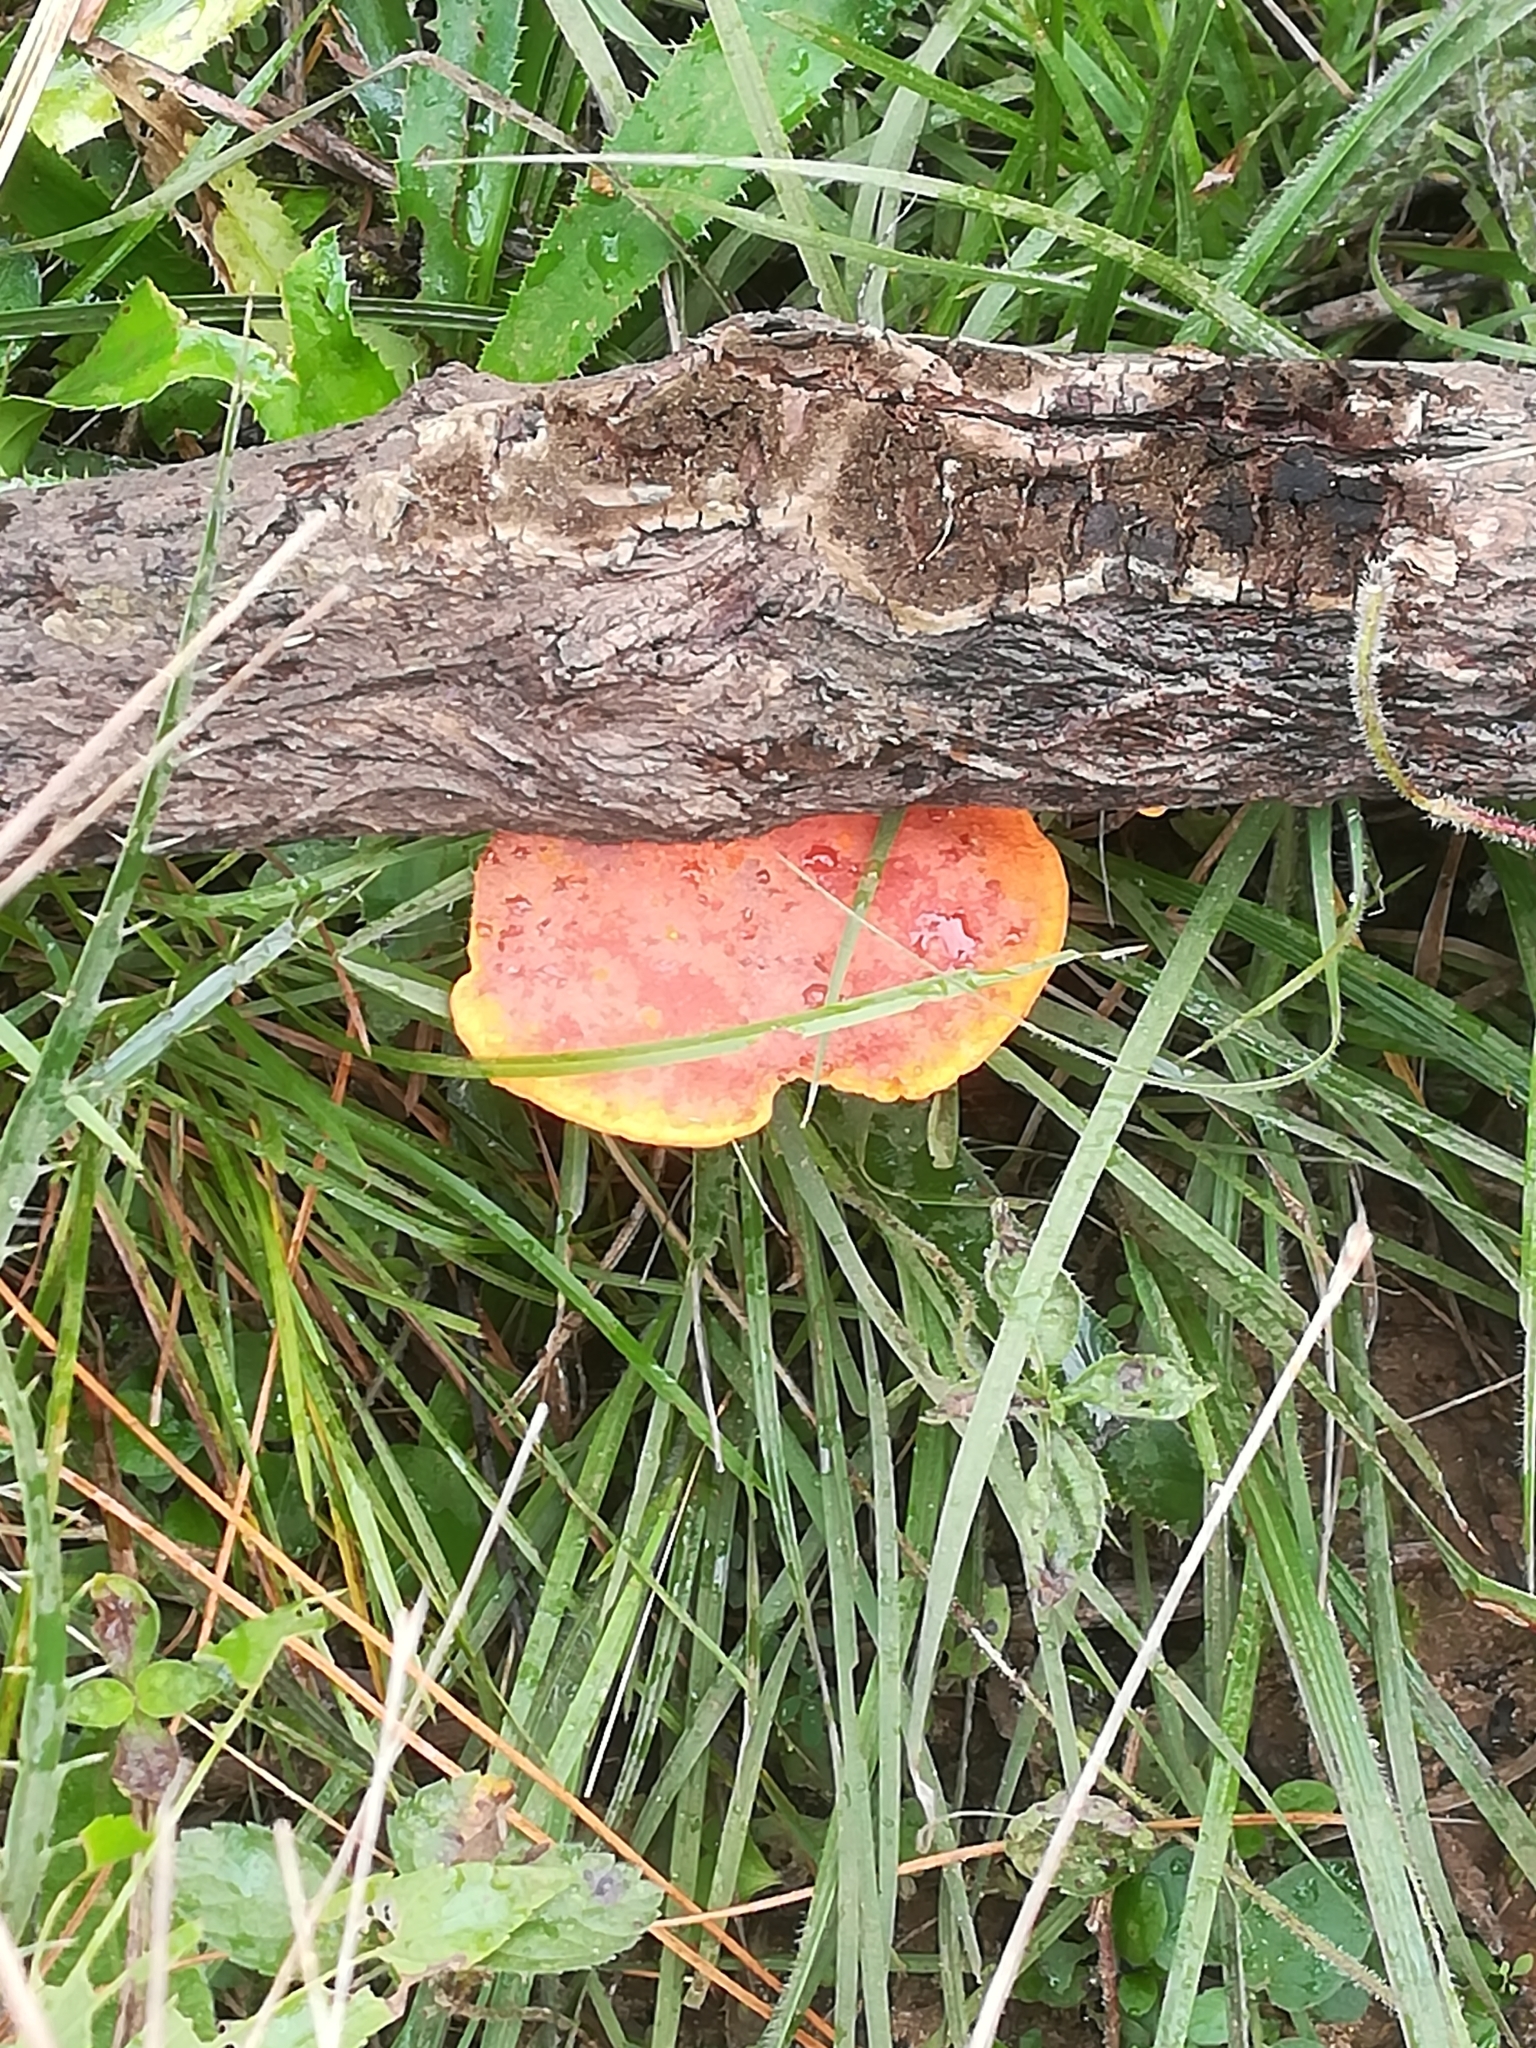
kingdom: Fungi
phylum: Basidiomycota
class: Agaricomycetes
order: Polyporales
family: Polyporaceae
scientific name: Polyporaceae
